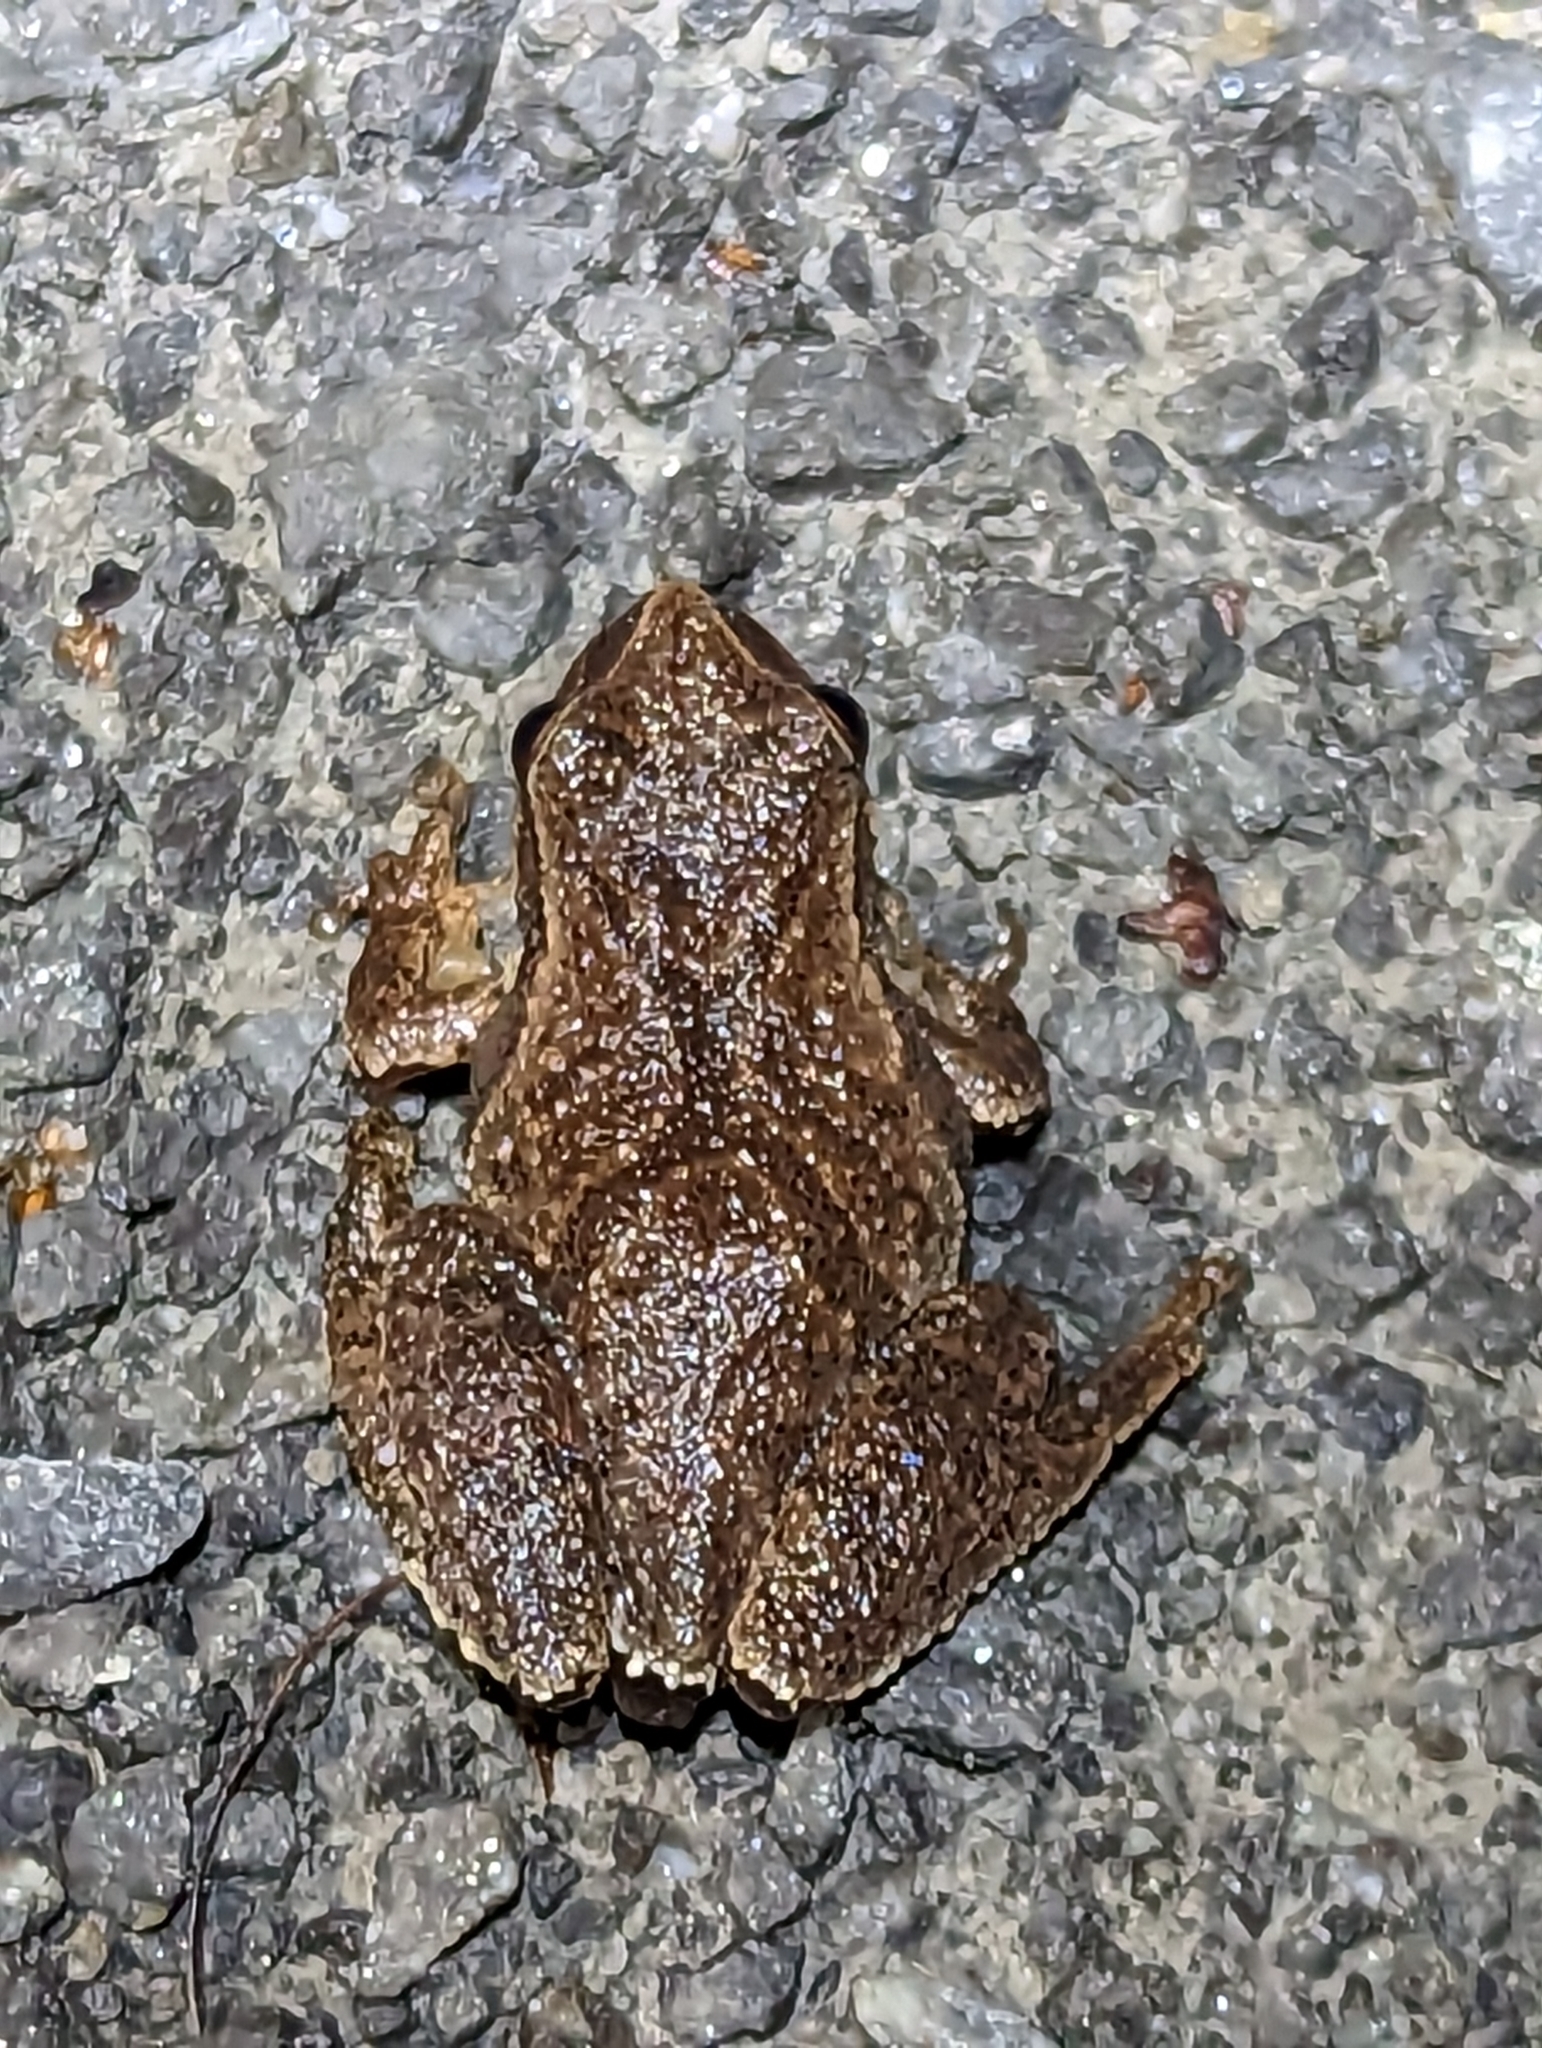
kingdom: Animalia
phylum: Chordata
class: Amphibia
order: Anura
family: Hylidae
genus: Pseudacris
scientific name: Pseudacris crucifer
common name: Spring peeper
